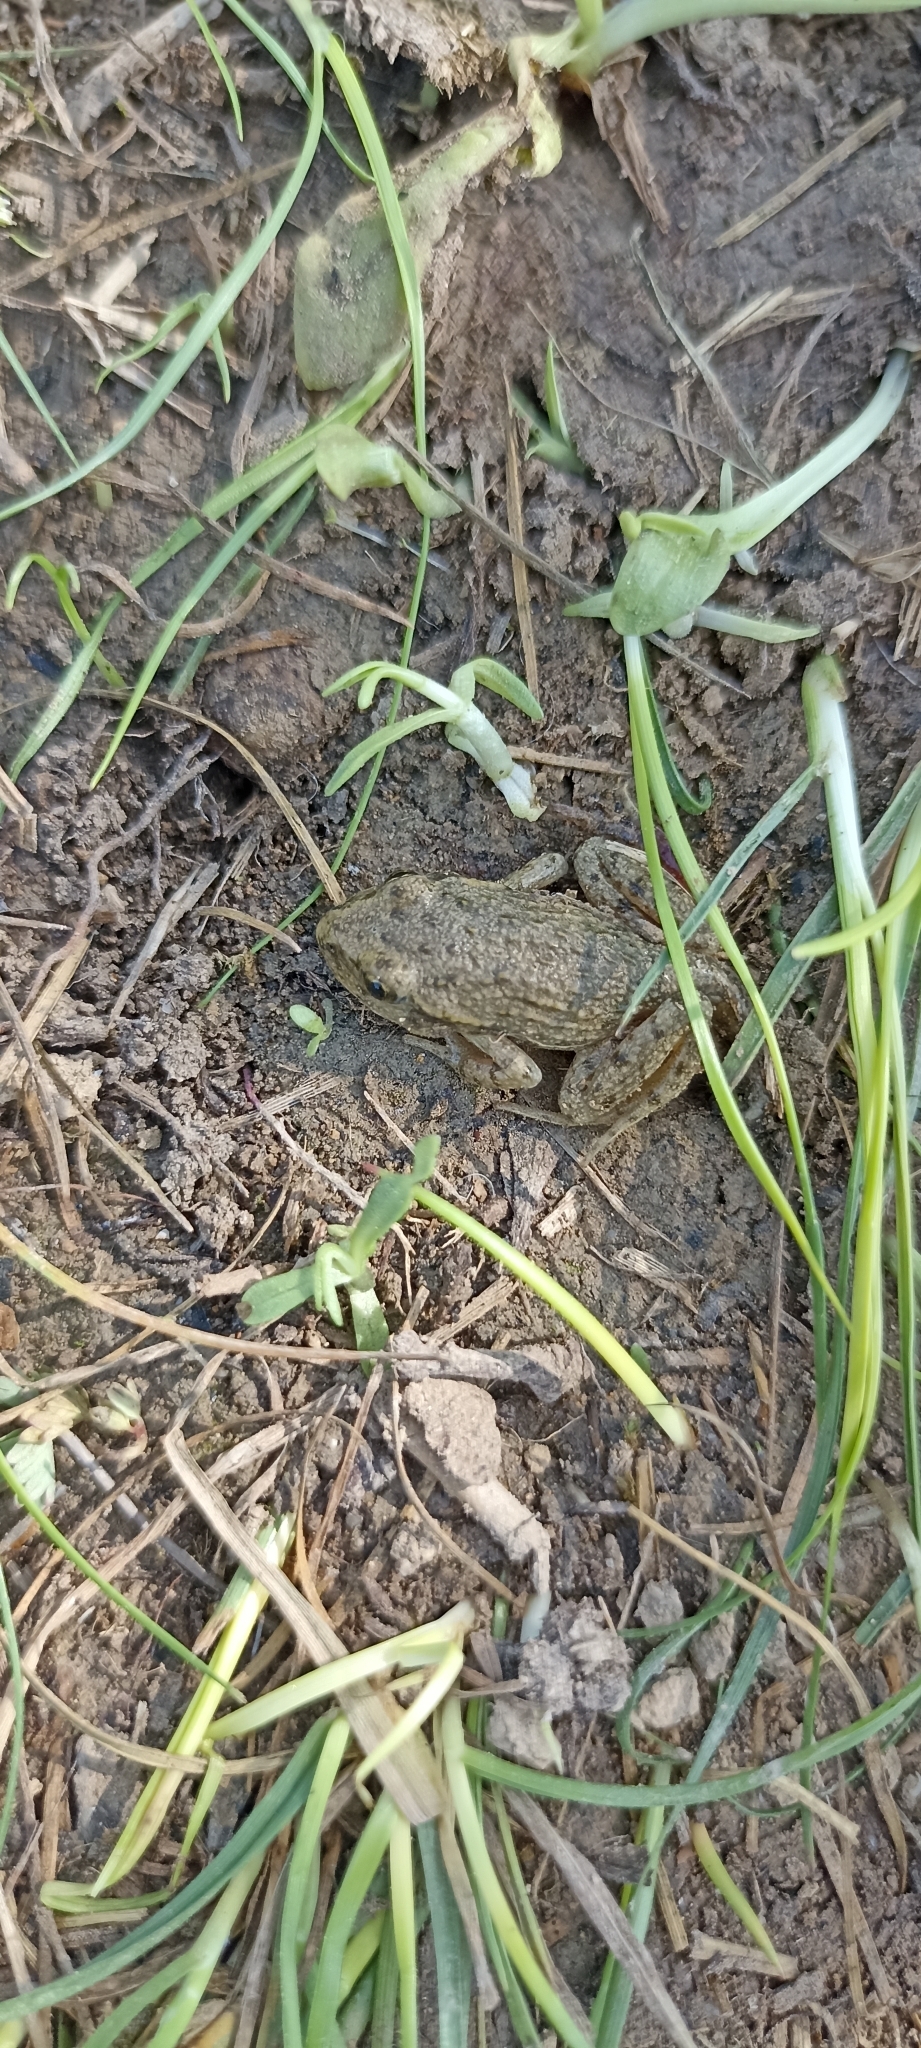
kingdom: Animalia
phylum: Chordata
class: Amphibia
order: Anura
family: Pelodytidae
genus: Pelodytes
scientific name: Pelodytes punctatus
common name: Parsley frog
